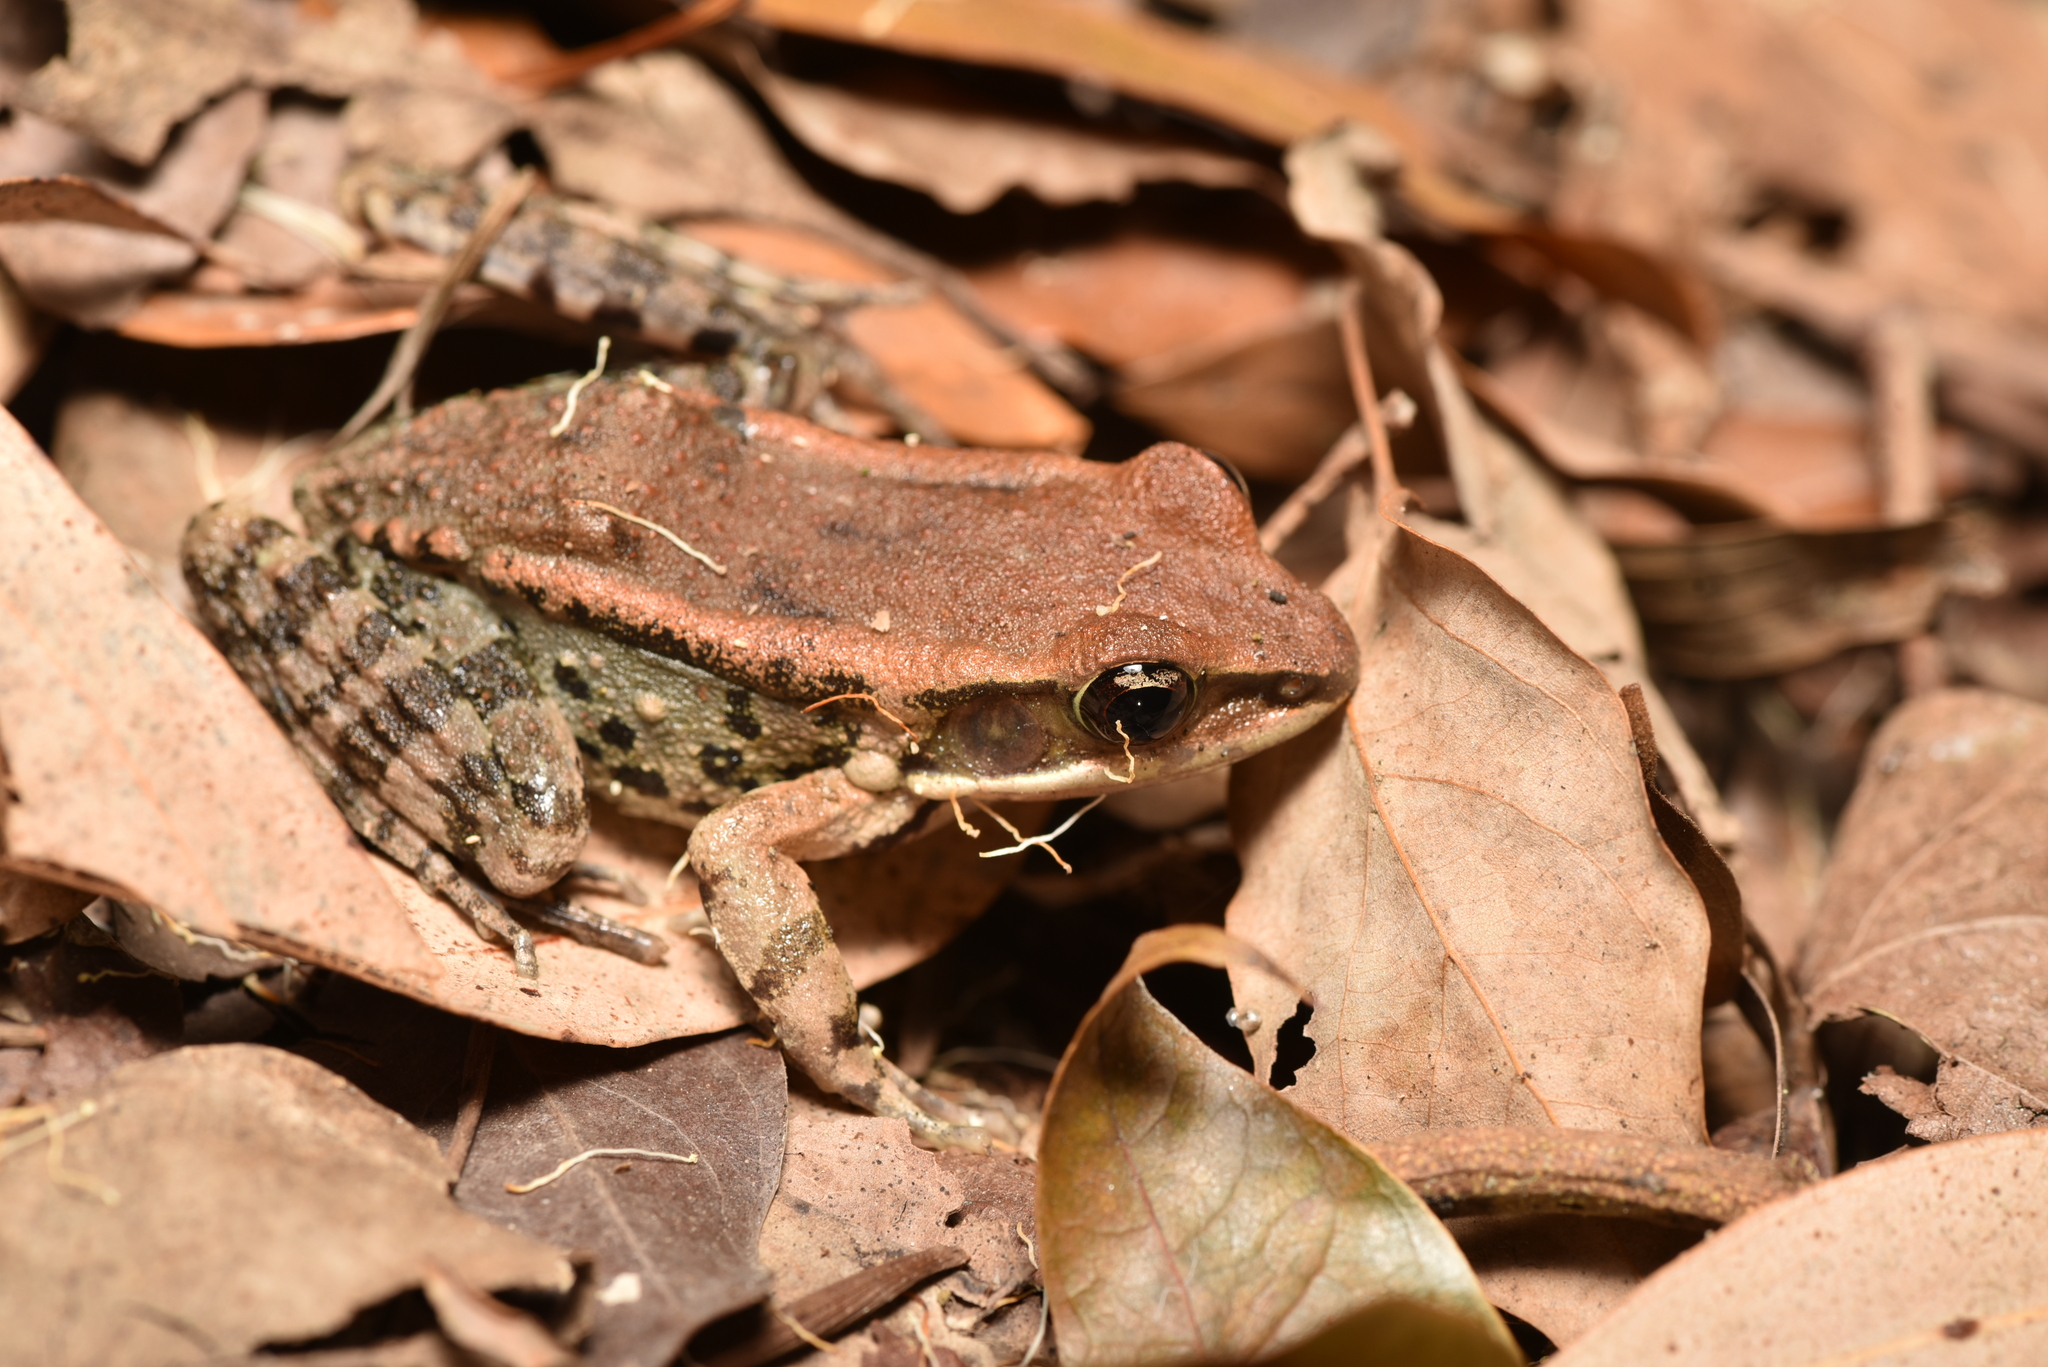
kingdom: Animalia
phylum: Chordata
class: Amphibia
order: Anura
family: Ranidae
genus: Hylarana
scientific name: Hylarana latouchii
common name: Broad-folded frog
